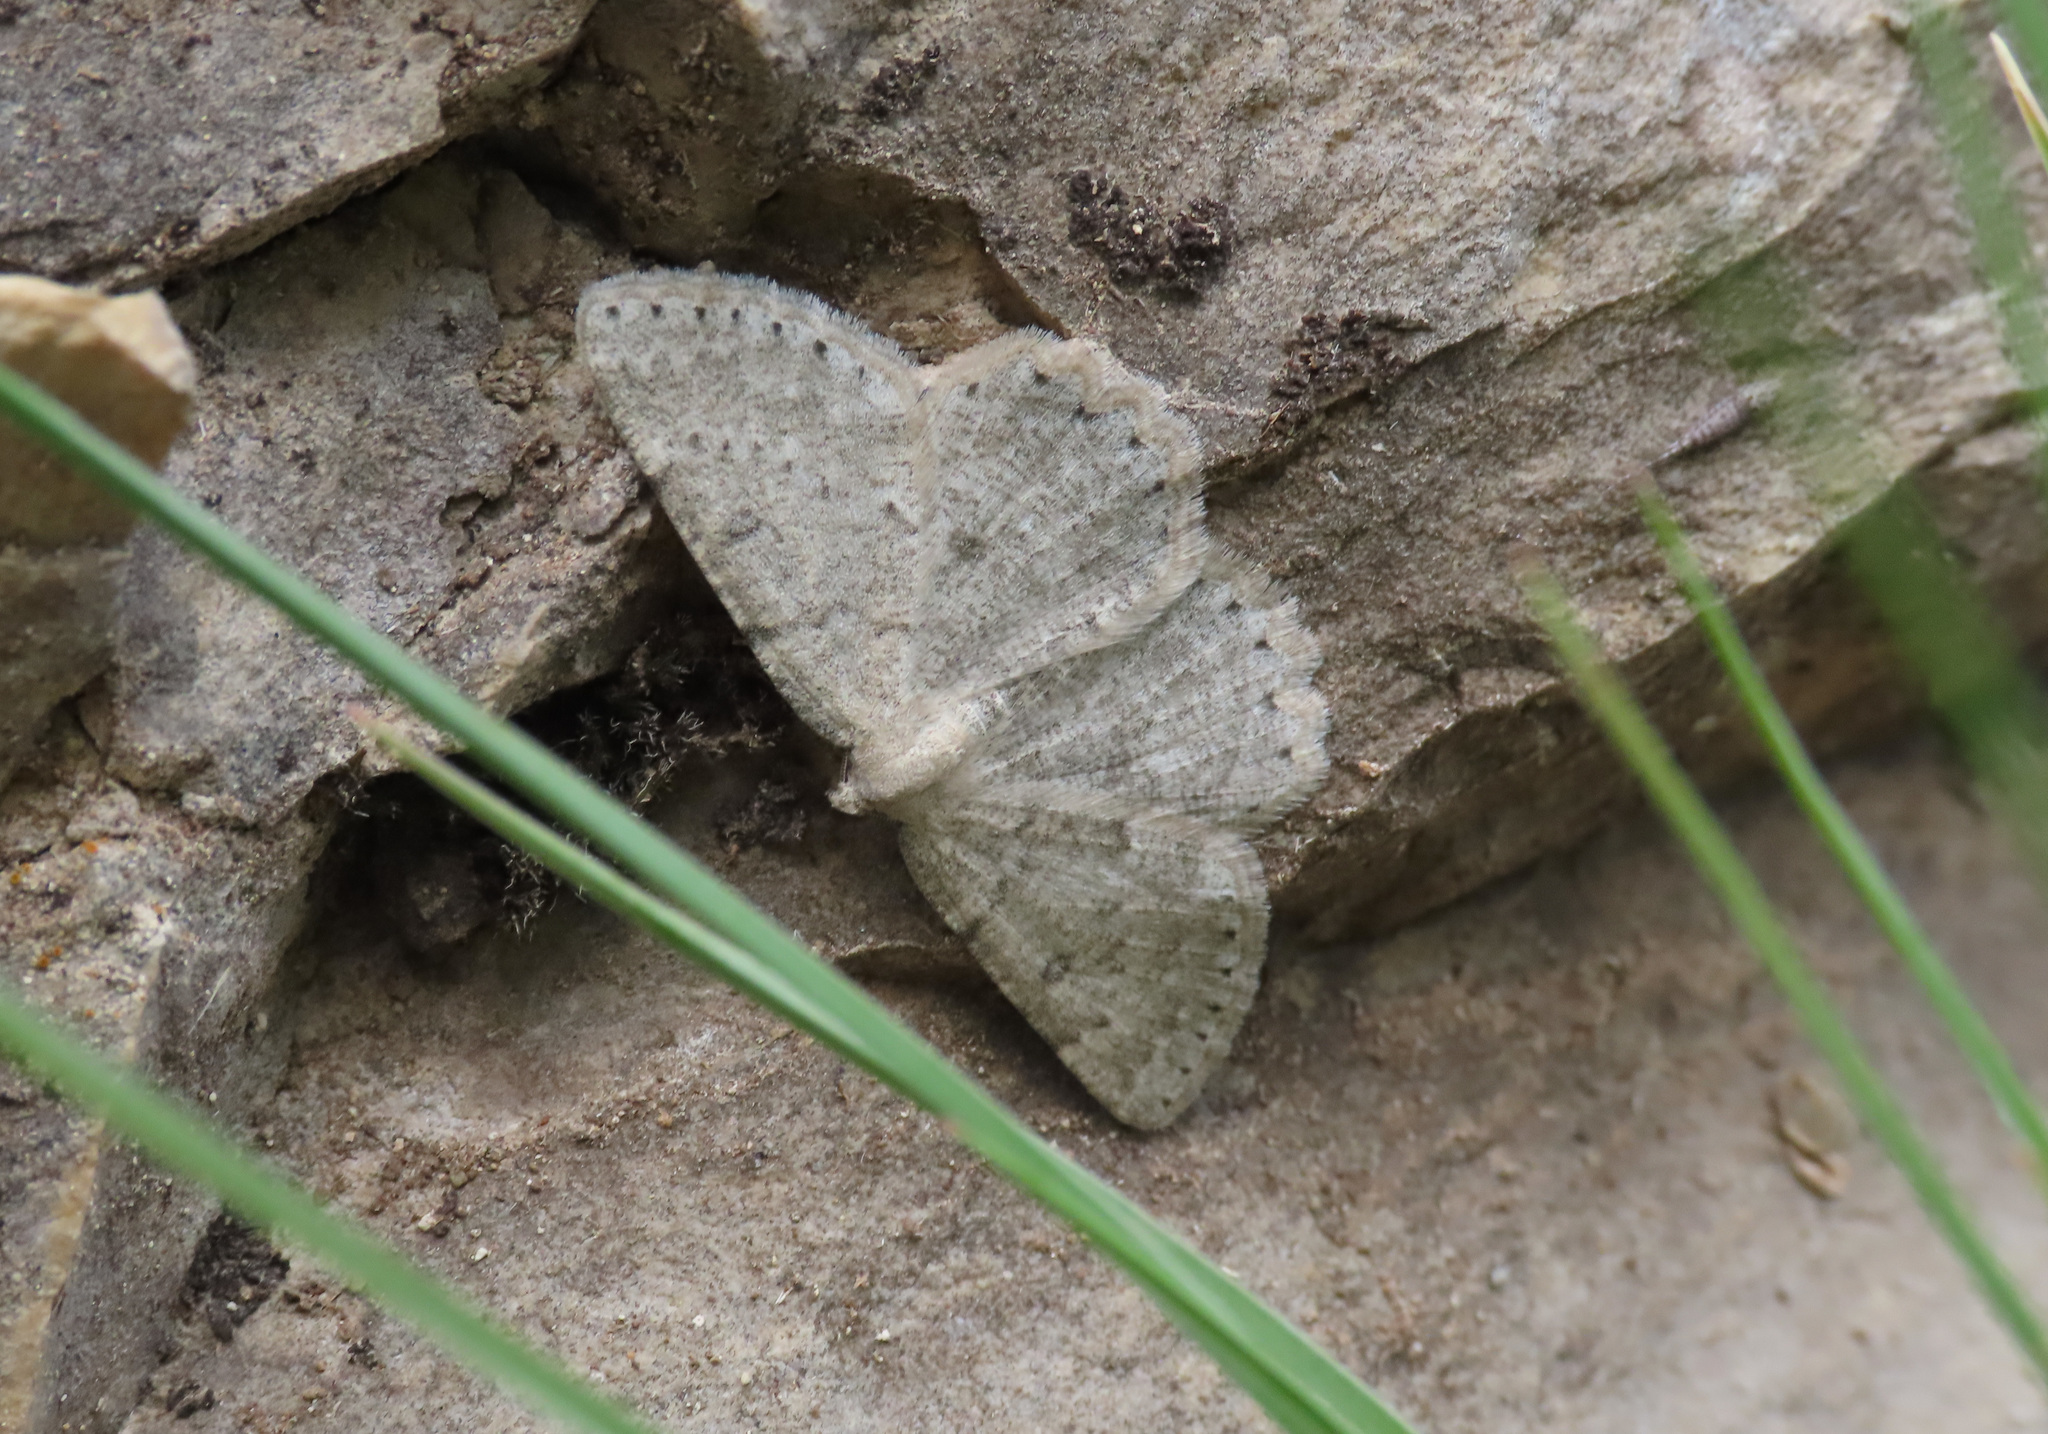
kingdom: Animalia
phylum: Arthropoda
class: Insecta
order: Lepidoptera
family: Geometridae
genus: Charissa
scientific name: Charissa glaucinaria
